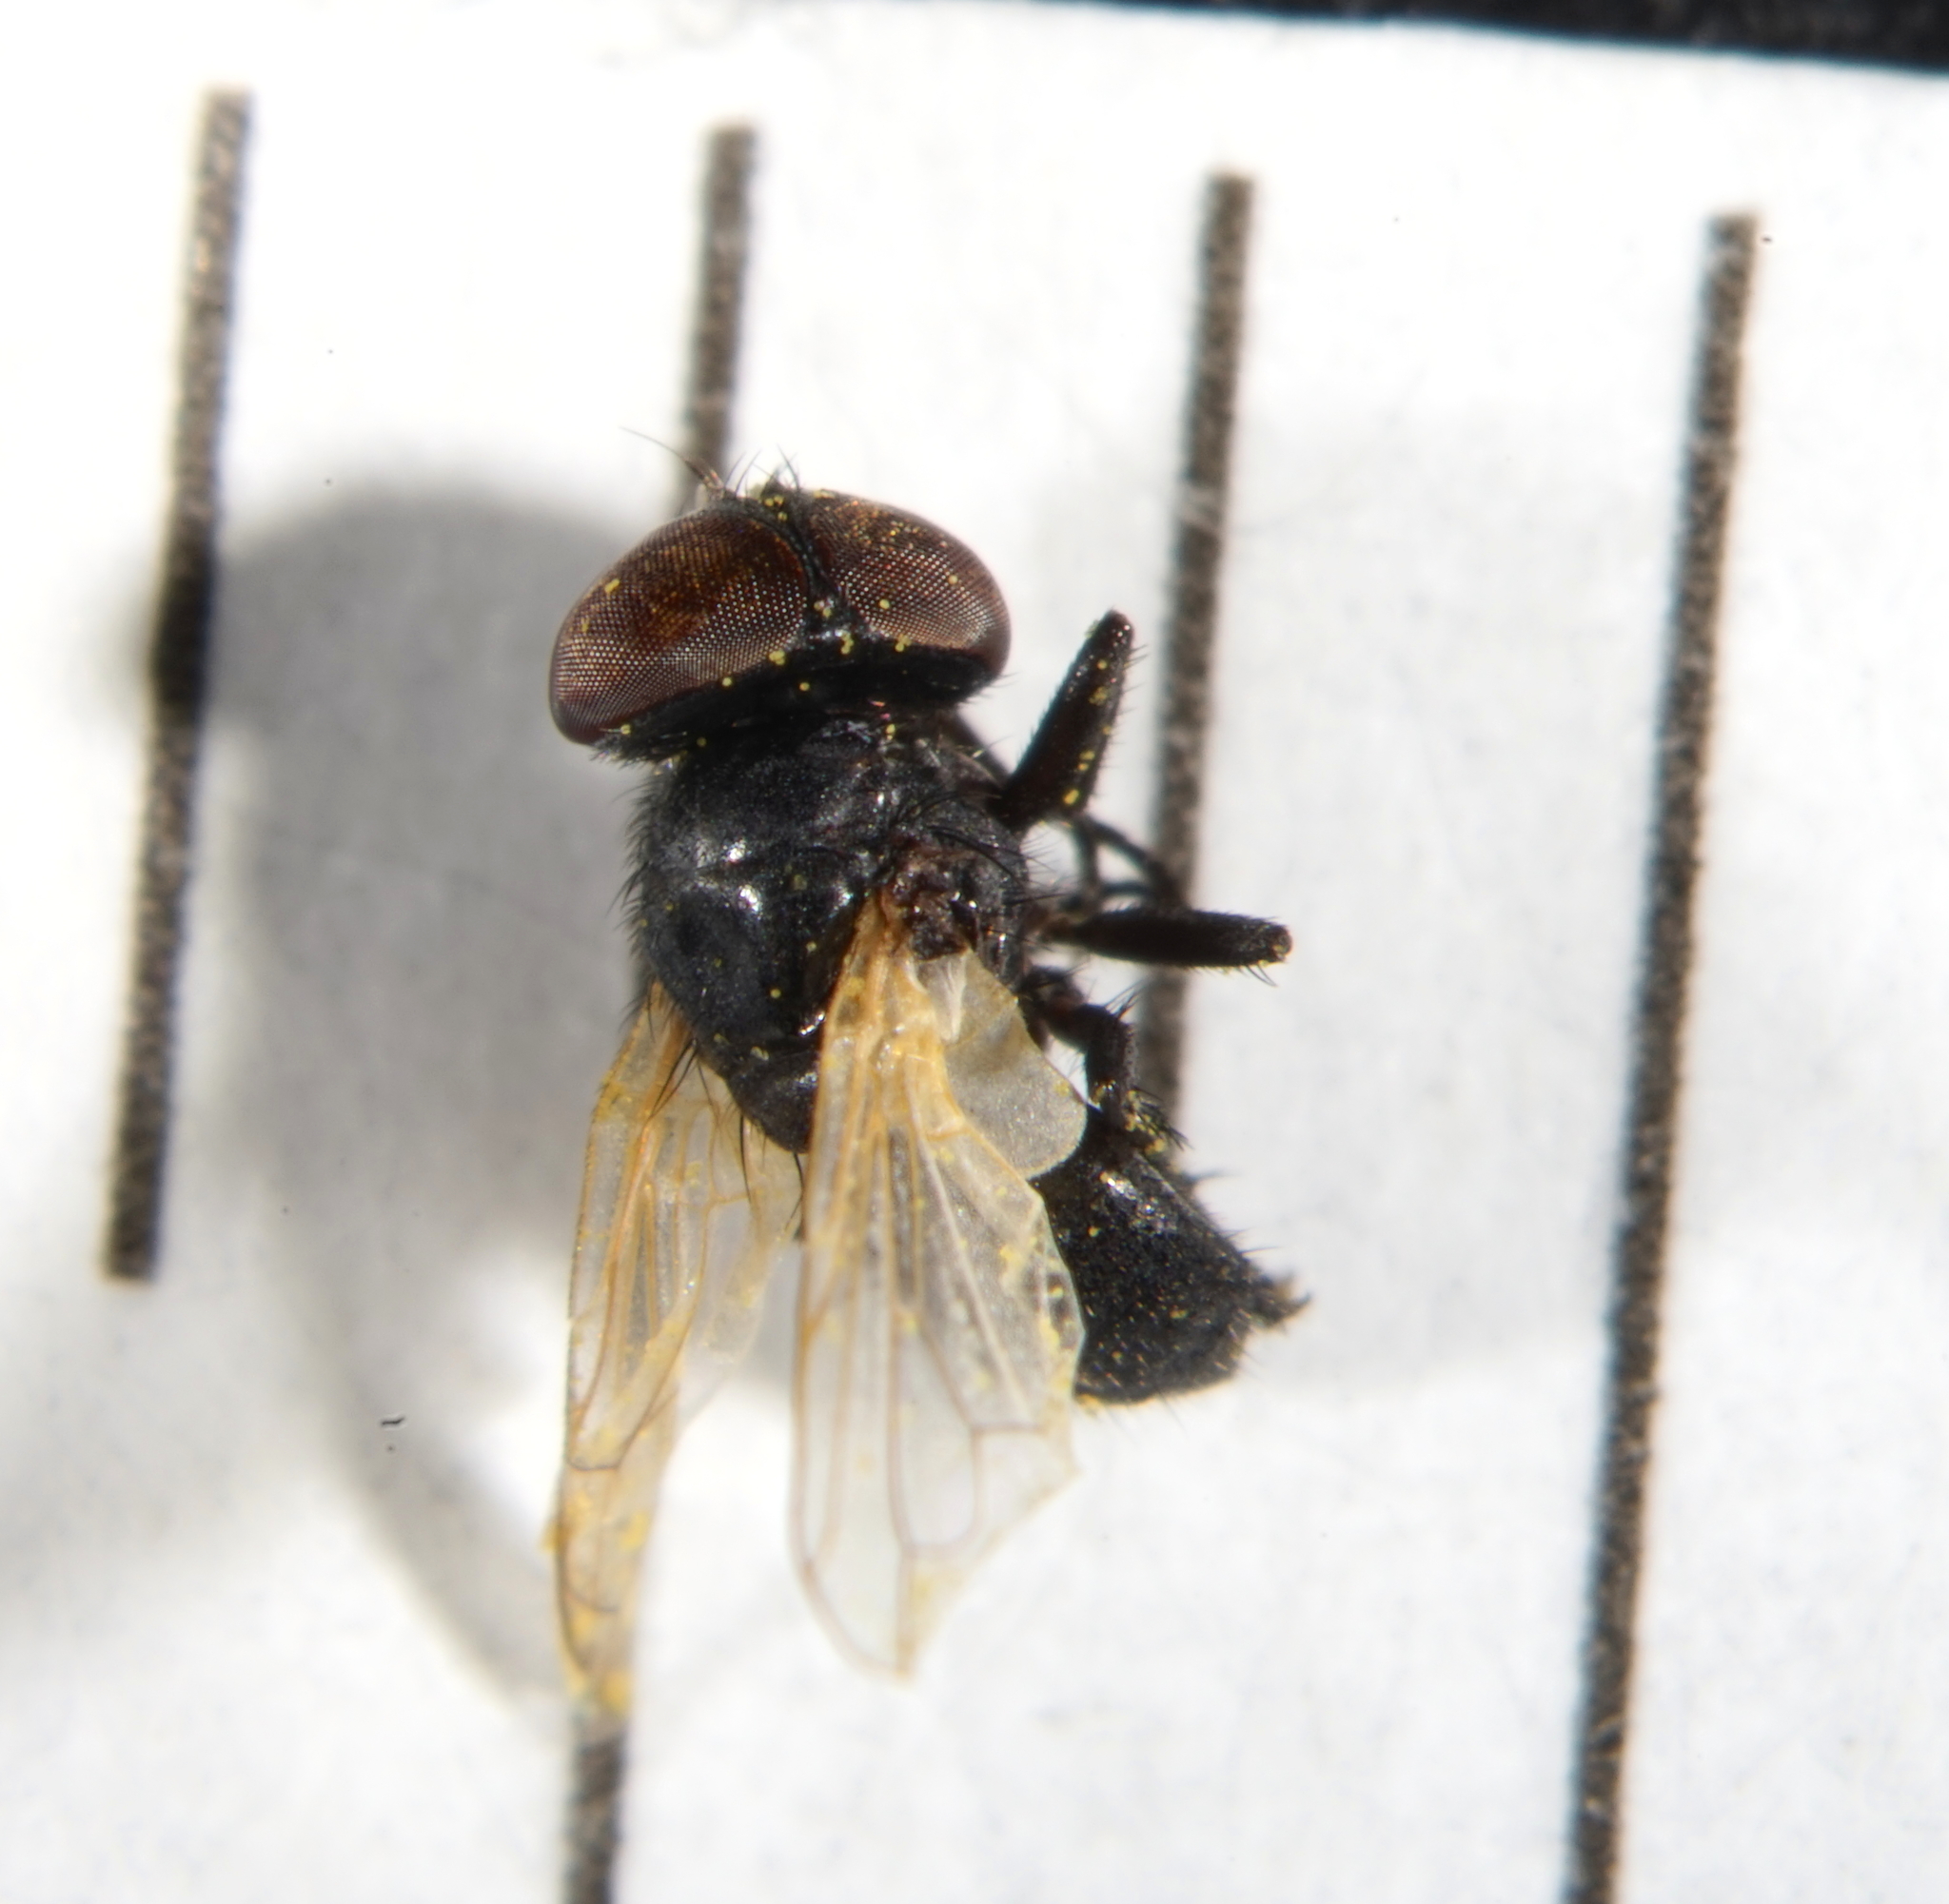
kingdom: Animalia
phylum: Arthropoda
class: Insecta
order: Diptera
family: Tachinidae
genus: Phasia
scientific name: Phasia mesnili
